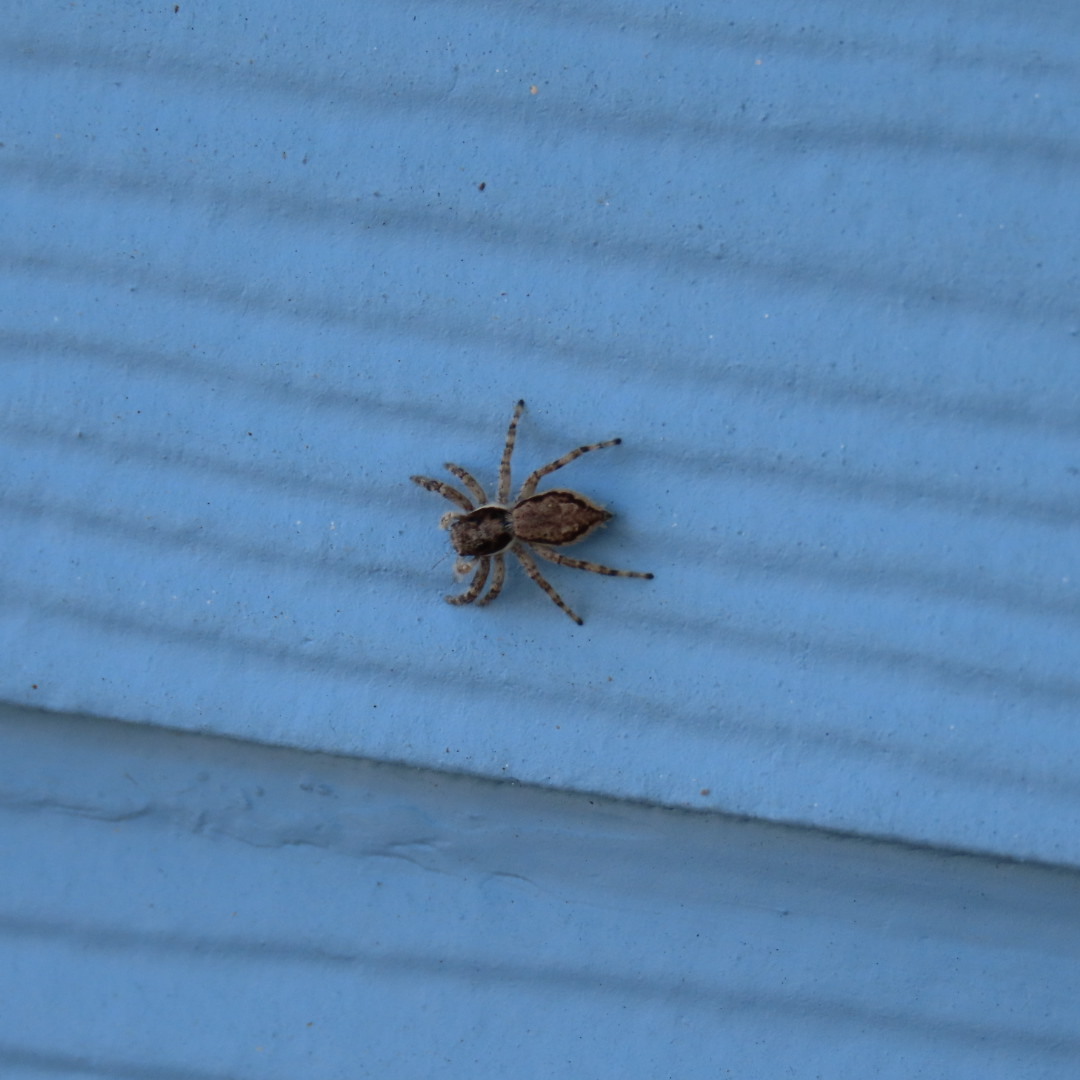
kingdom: Animalia
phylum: Arthropoda
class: Arachnida
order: Araneae
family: Salticidae
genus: Menemerus
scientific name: Menemerus bivittatus
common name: Gray wall jumper
